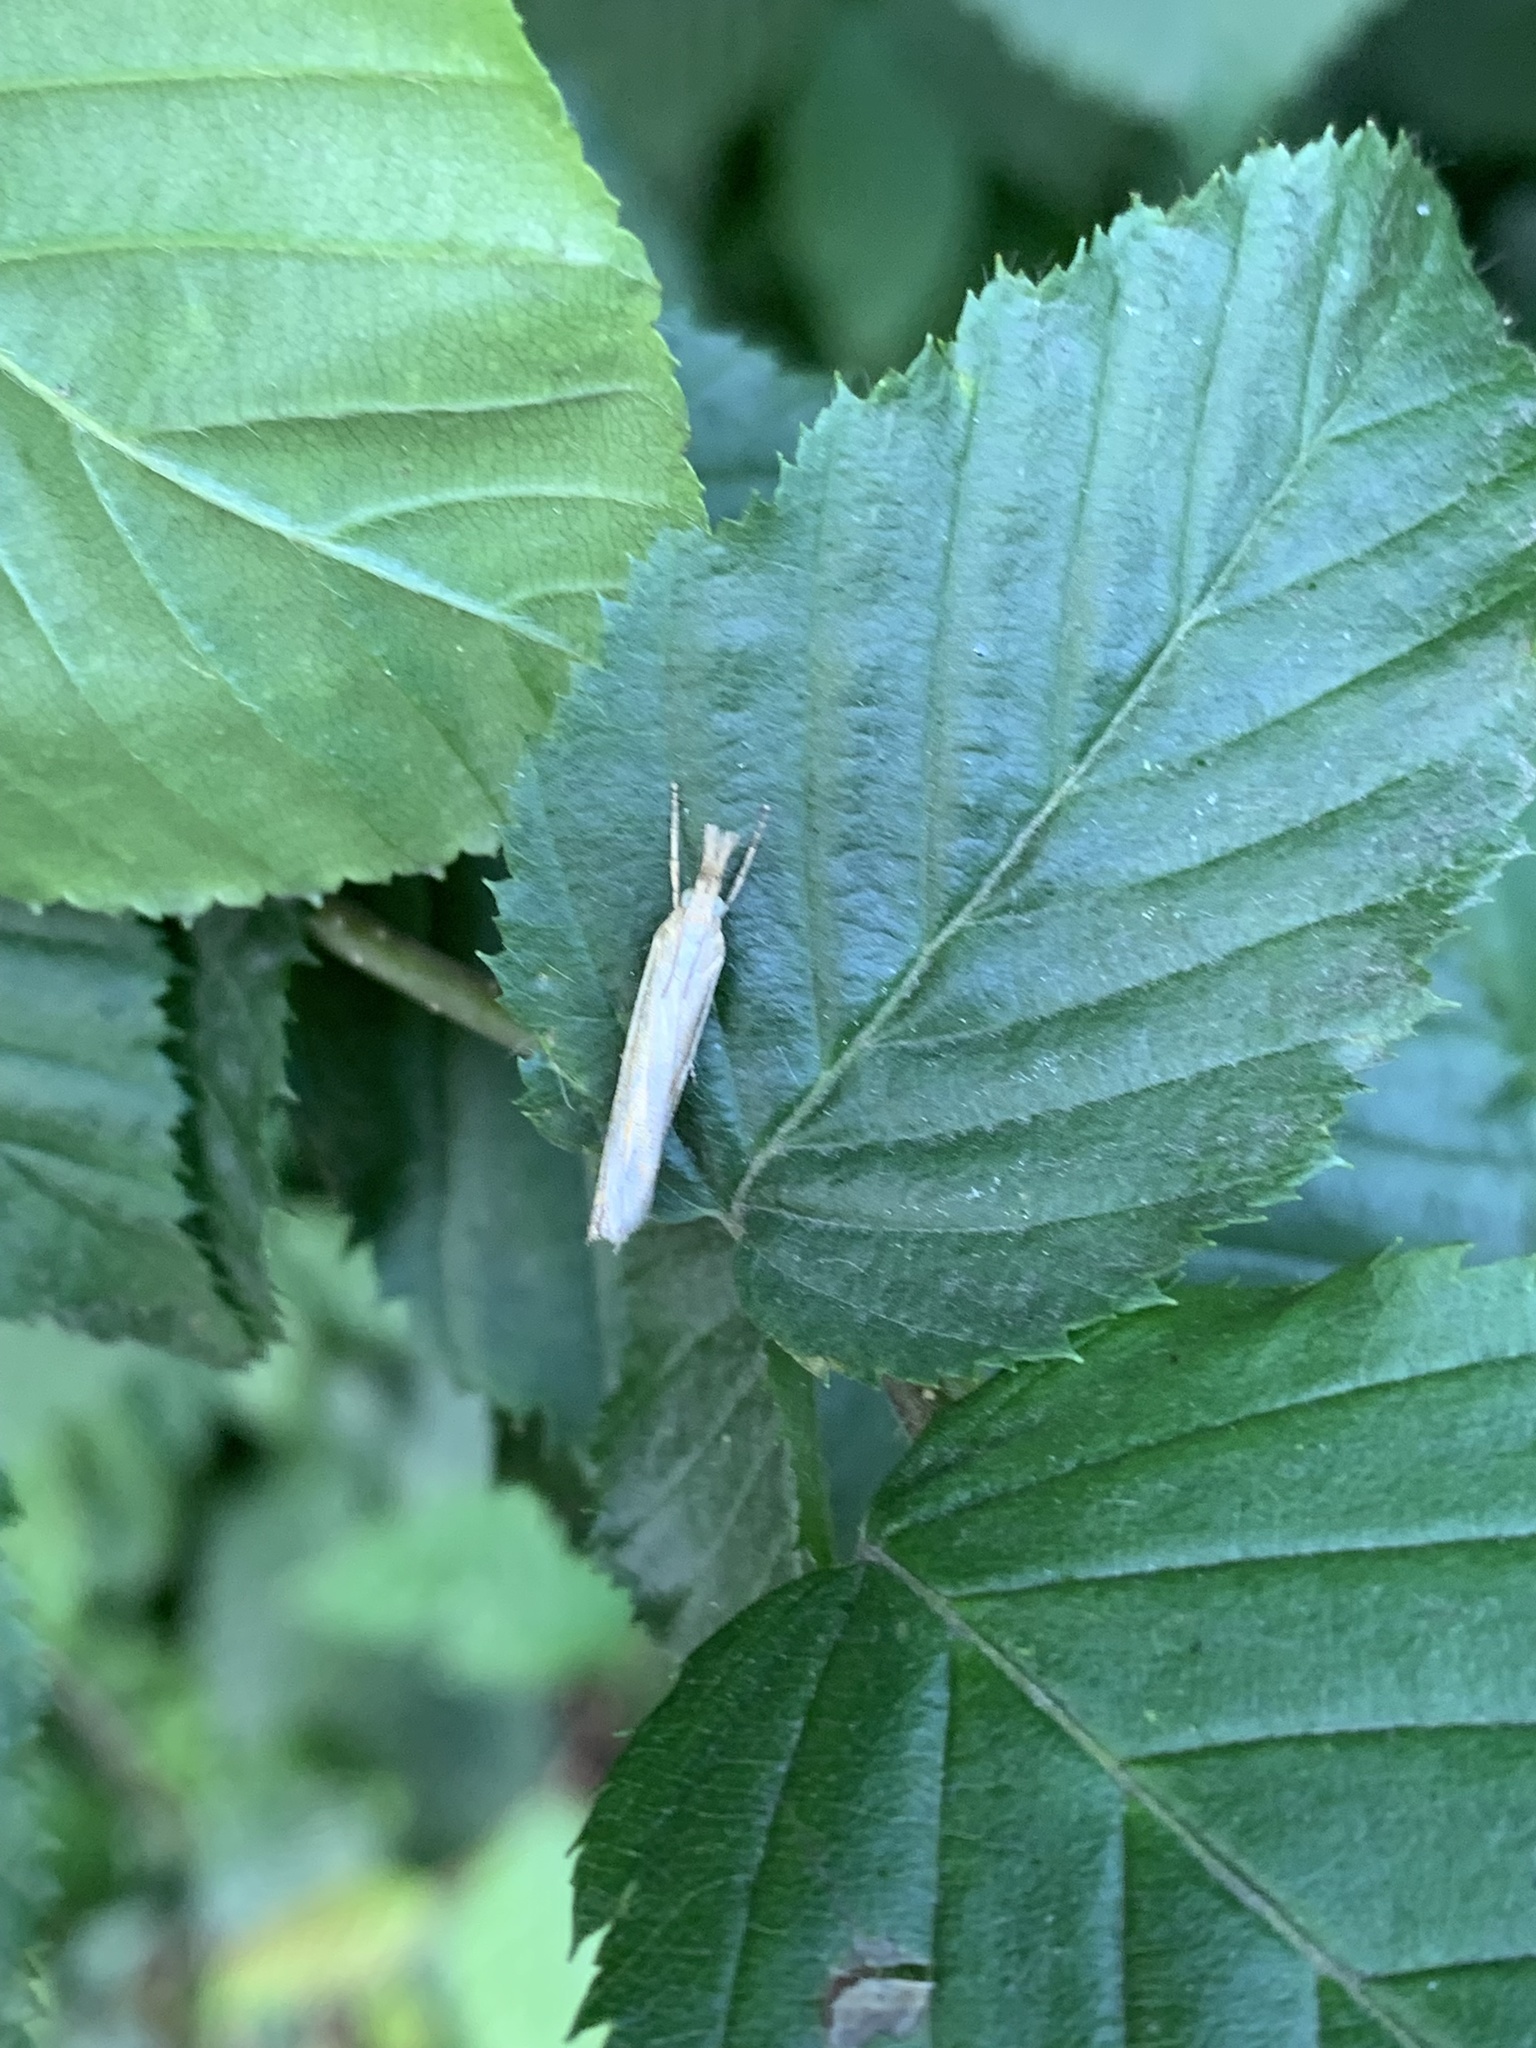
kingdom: Animalia
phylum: Arthropoda
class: Insecta
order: Lepidoptera
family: Crambidae
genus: Agriphila
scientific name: Agriphila tristellus
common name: Common grass-veneer
